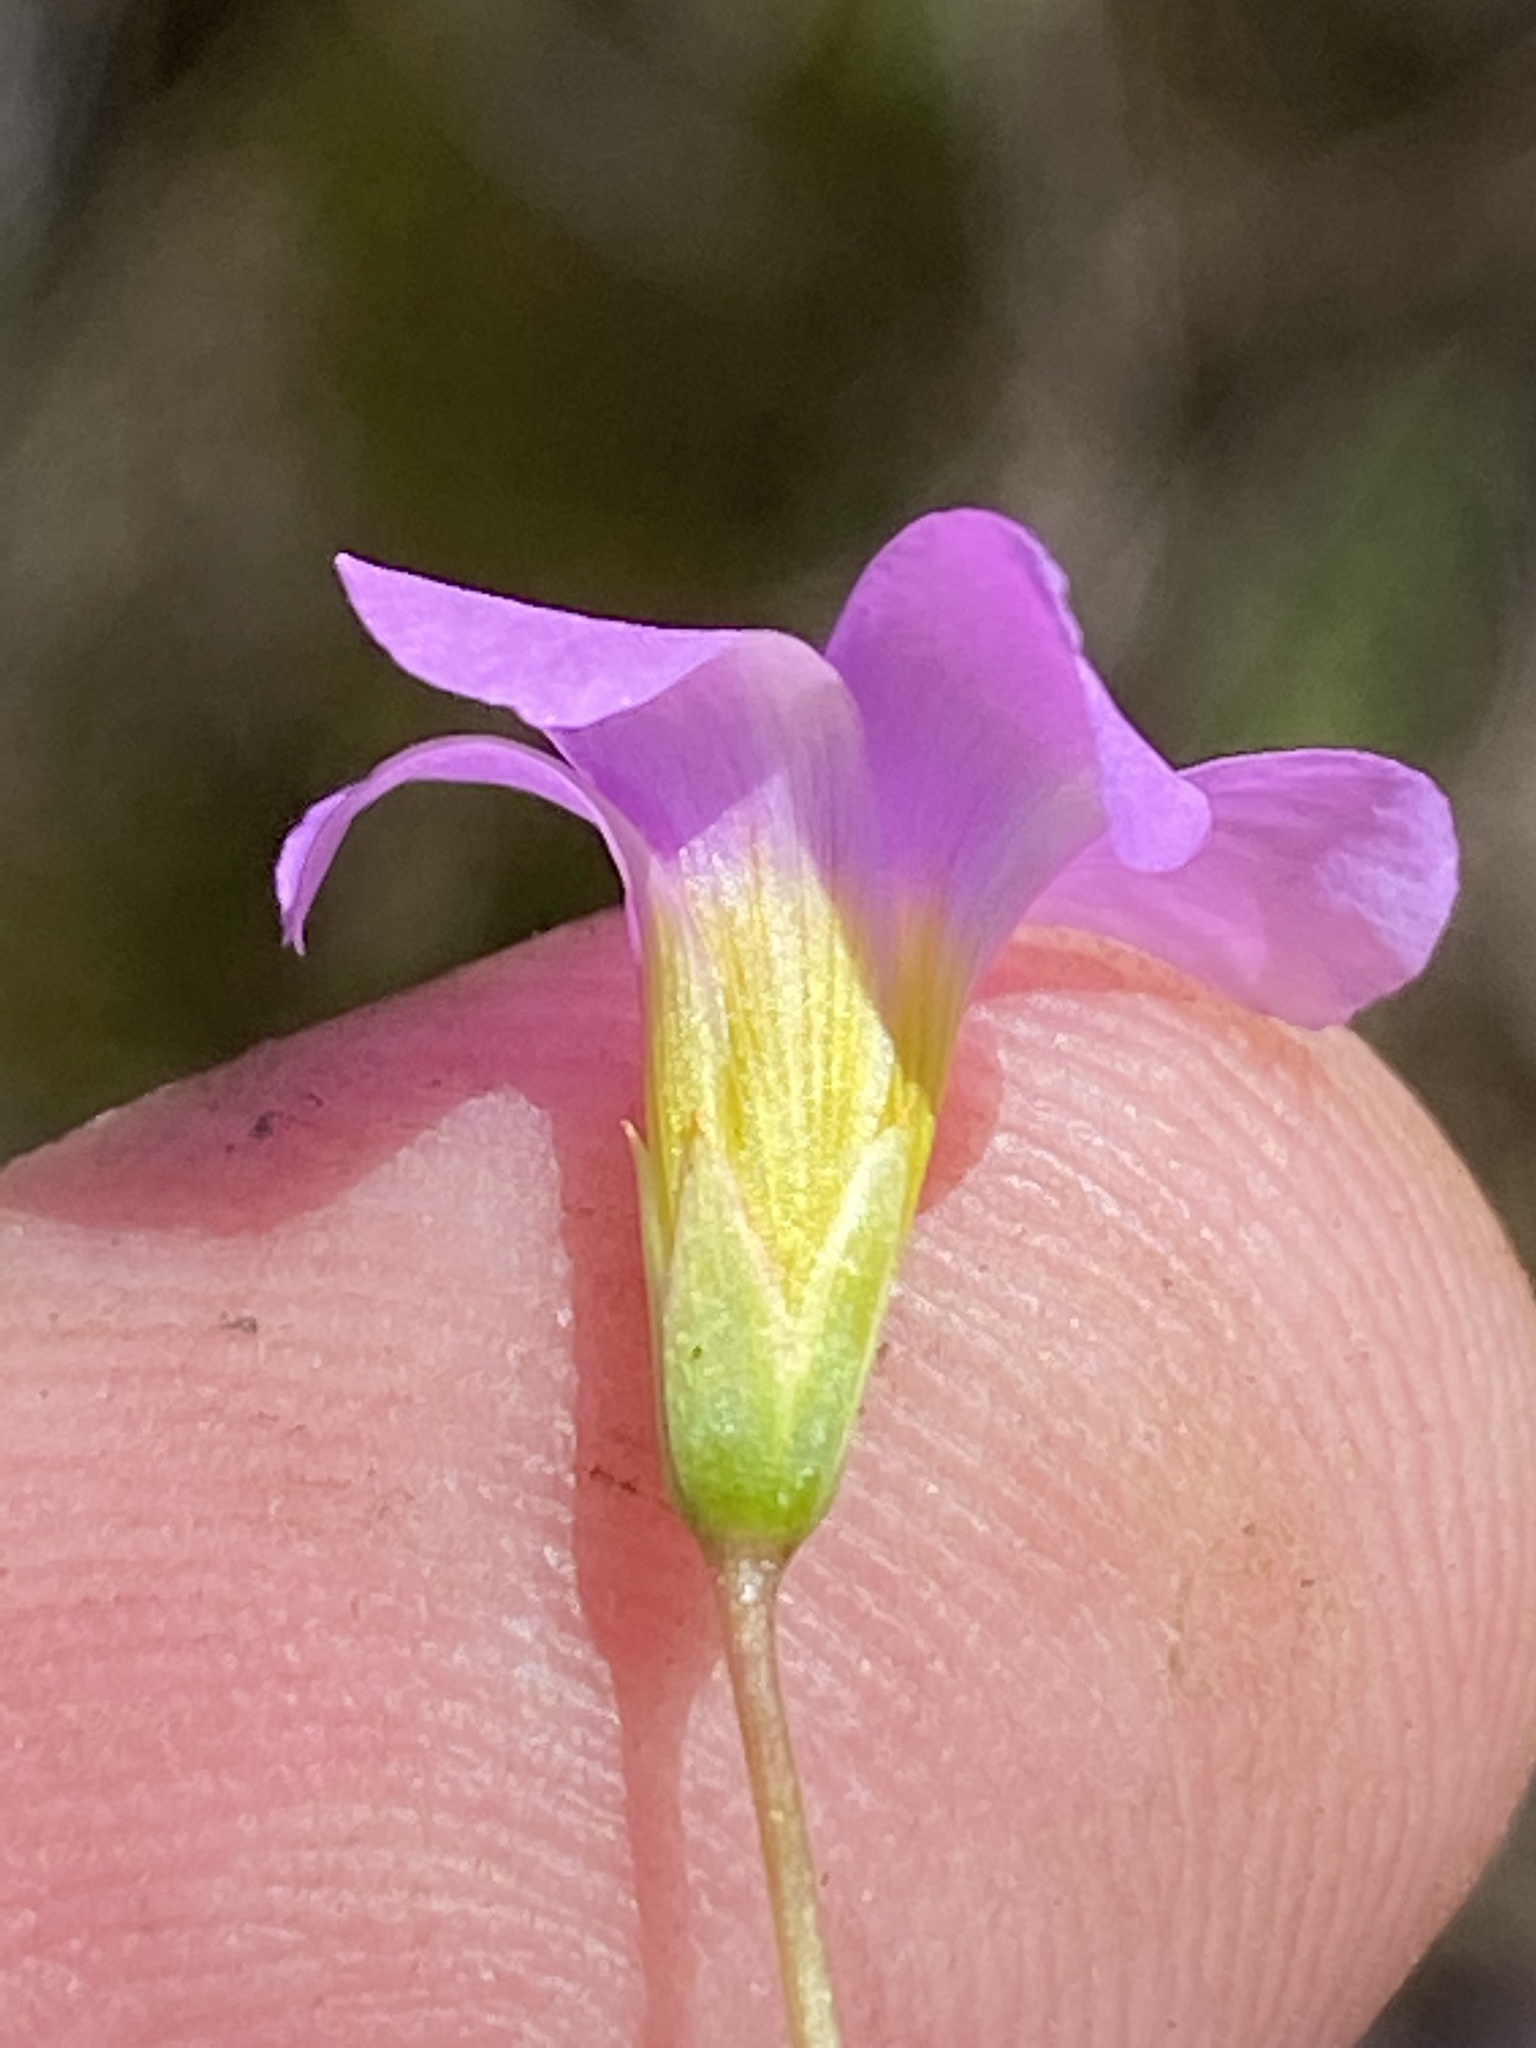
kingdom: Plantae
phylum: Tracheophyta
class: Magnoliopsida
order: Oxalidales
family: Oxalidaceae
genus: Oxalis
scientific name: Oxalis caprina
